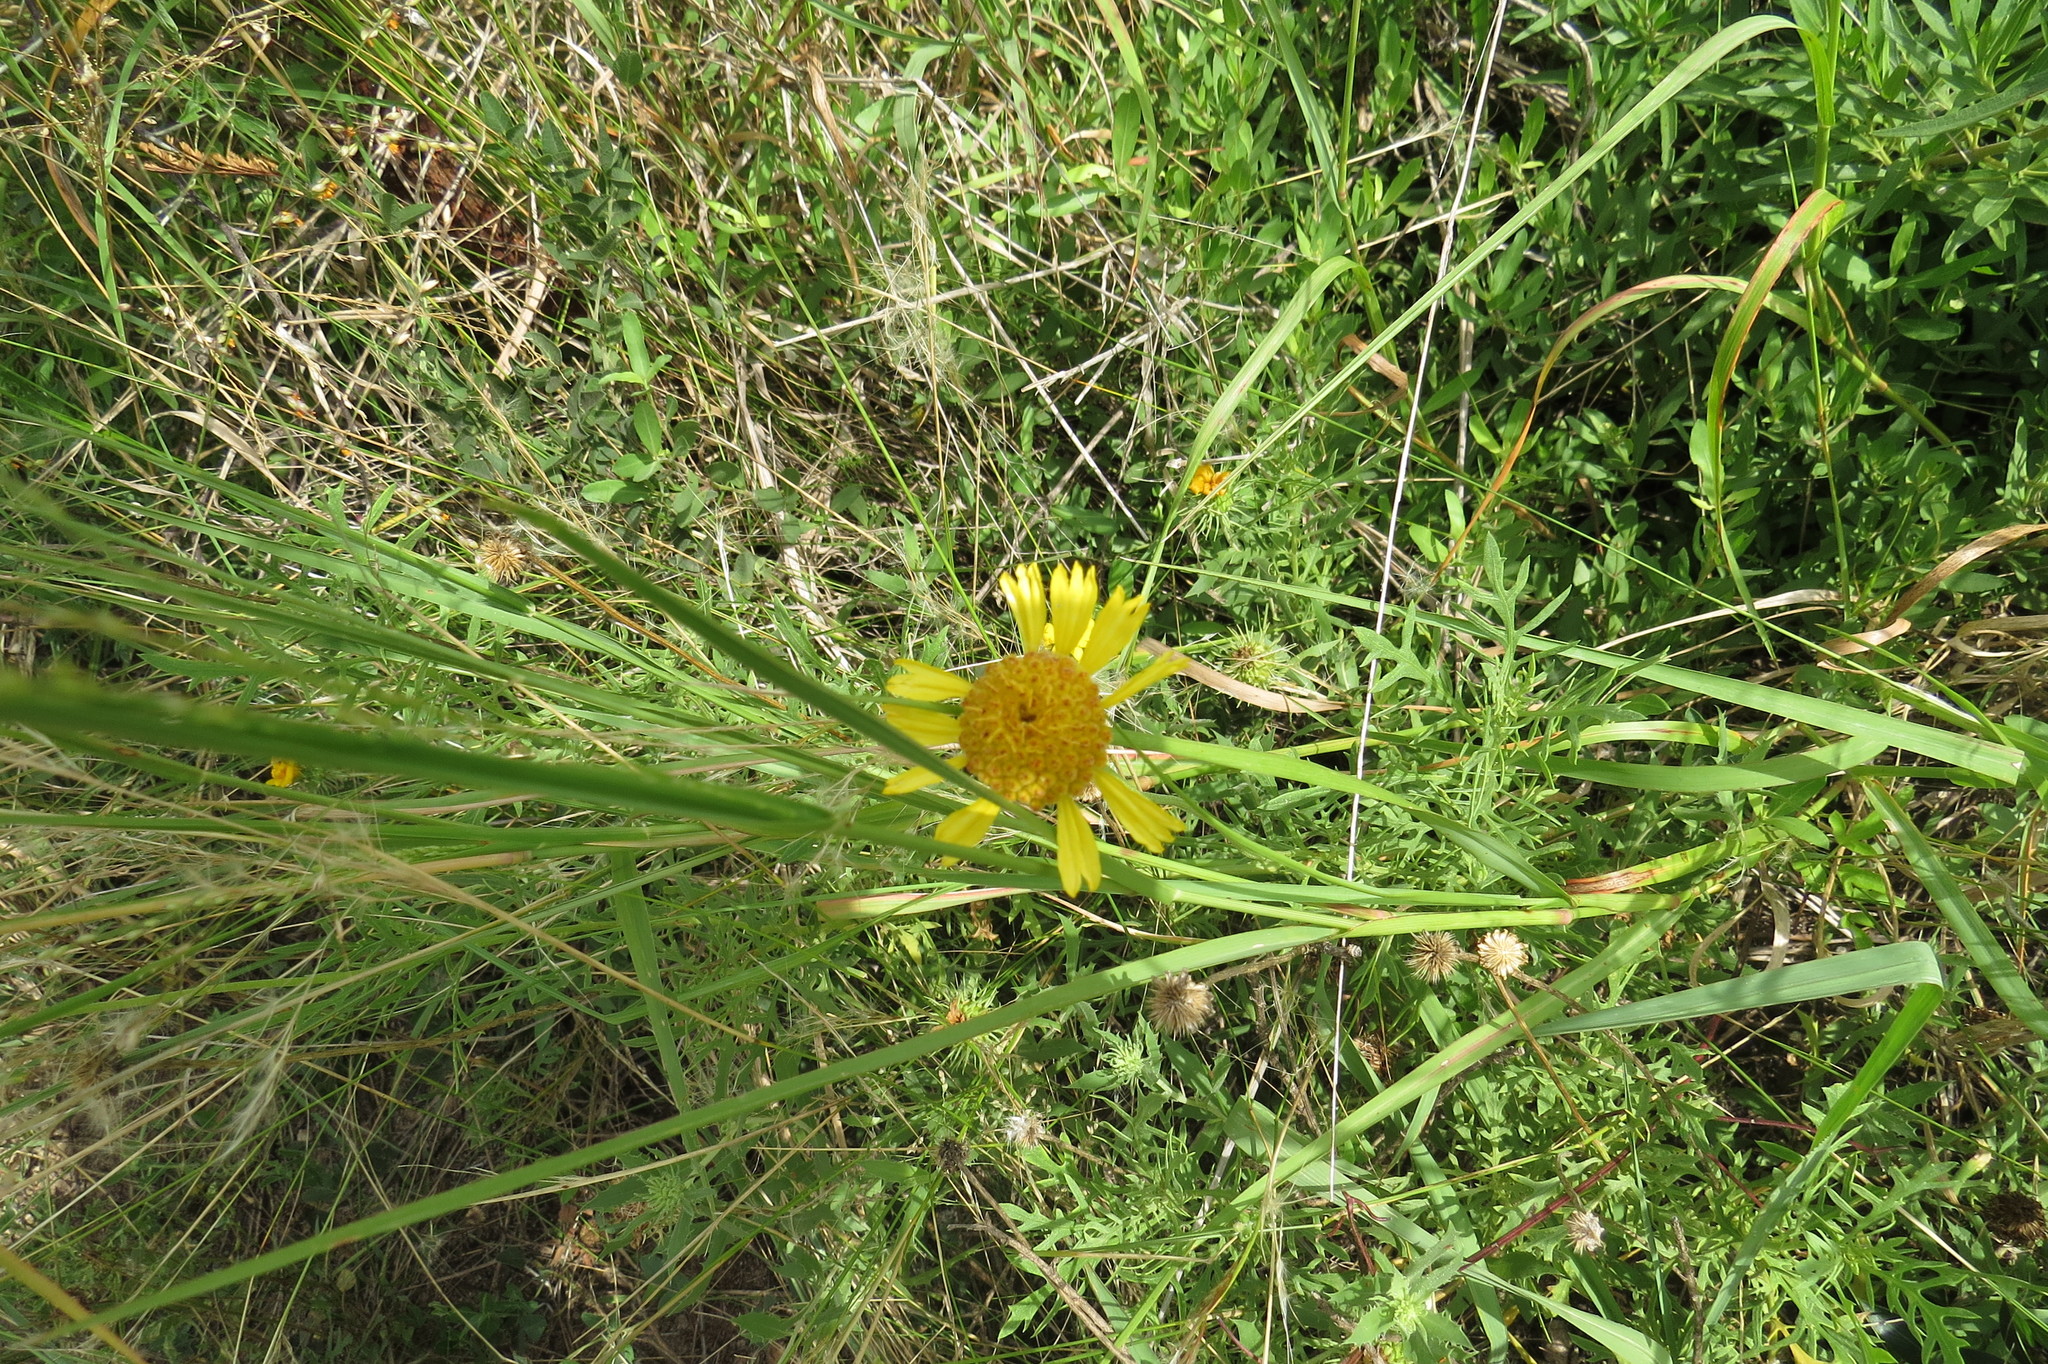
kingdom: Plantae
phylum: Tracheophyta
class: Magnoliopsida
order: Asterales
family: Asteraceae
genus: Gaillardia
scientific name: Gaillardia megapotamica
